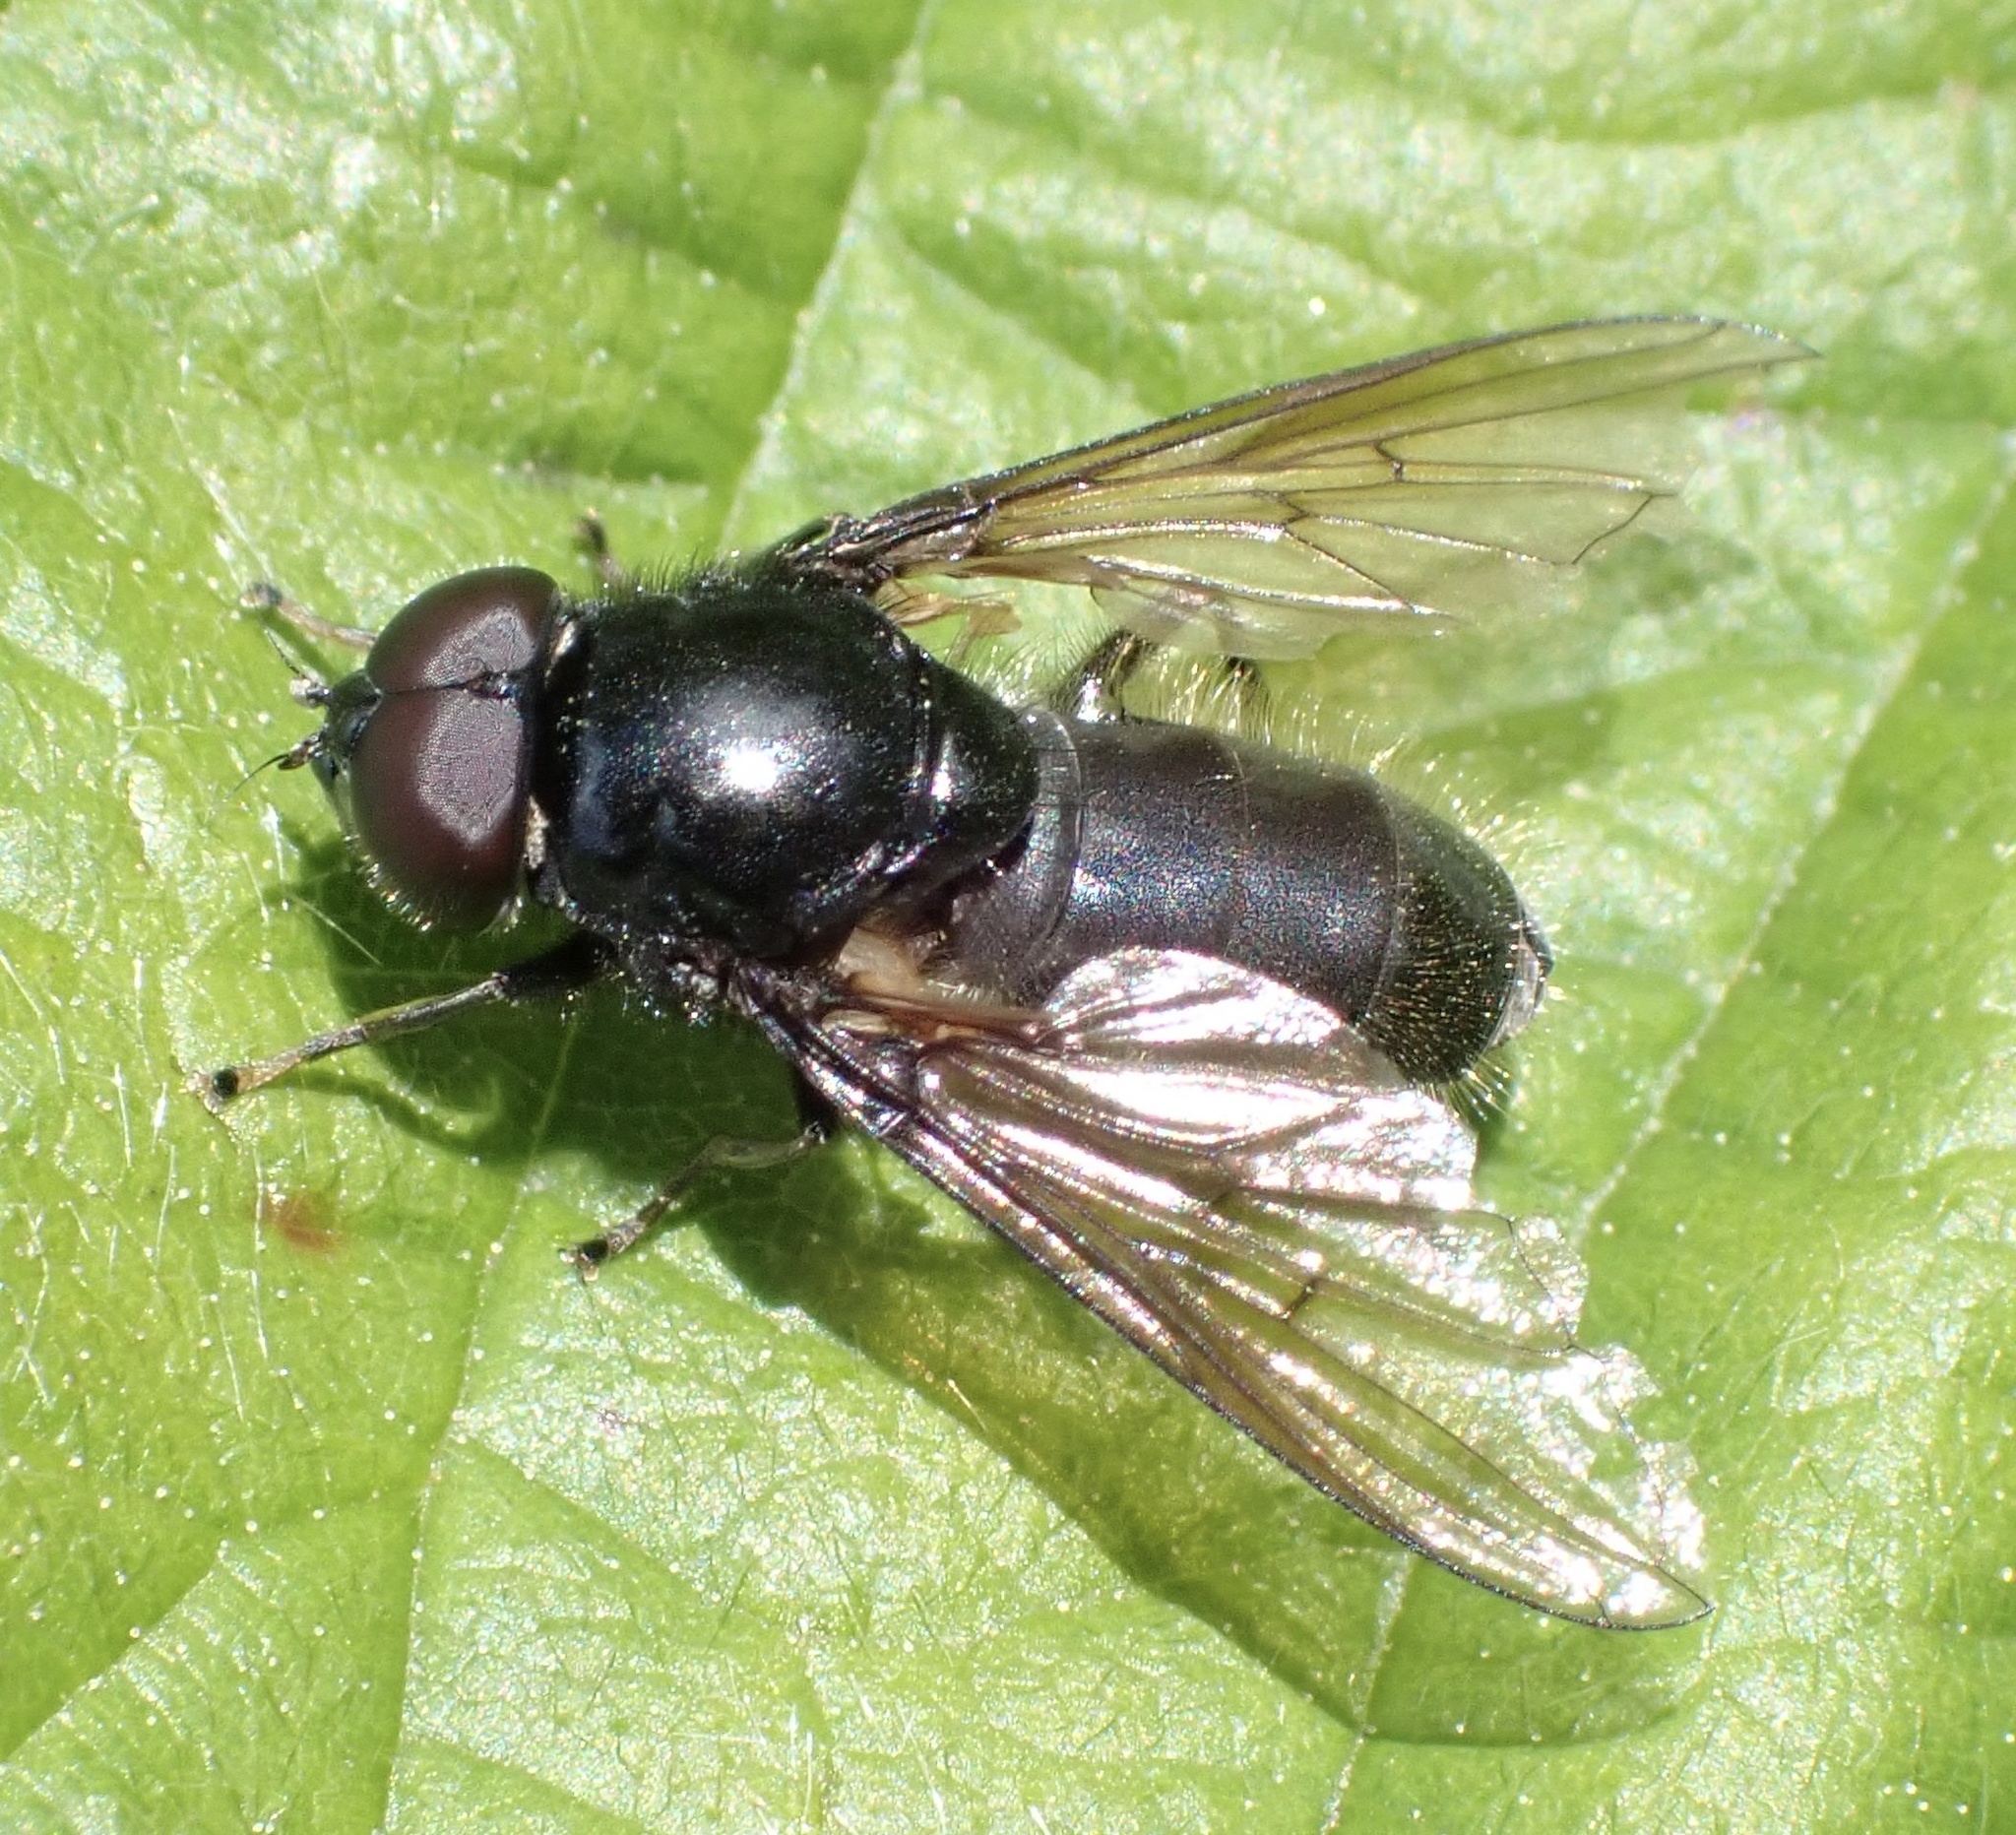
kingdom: Animalia
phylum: Arthropoda
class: Insecta
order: Diptera
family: Syrphidae
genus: Cheilosia
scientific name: Cheilosia albitarsis
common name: Buttercup blacklet
